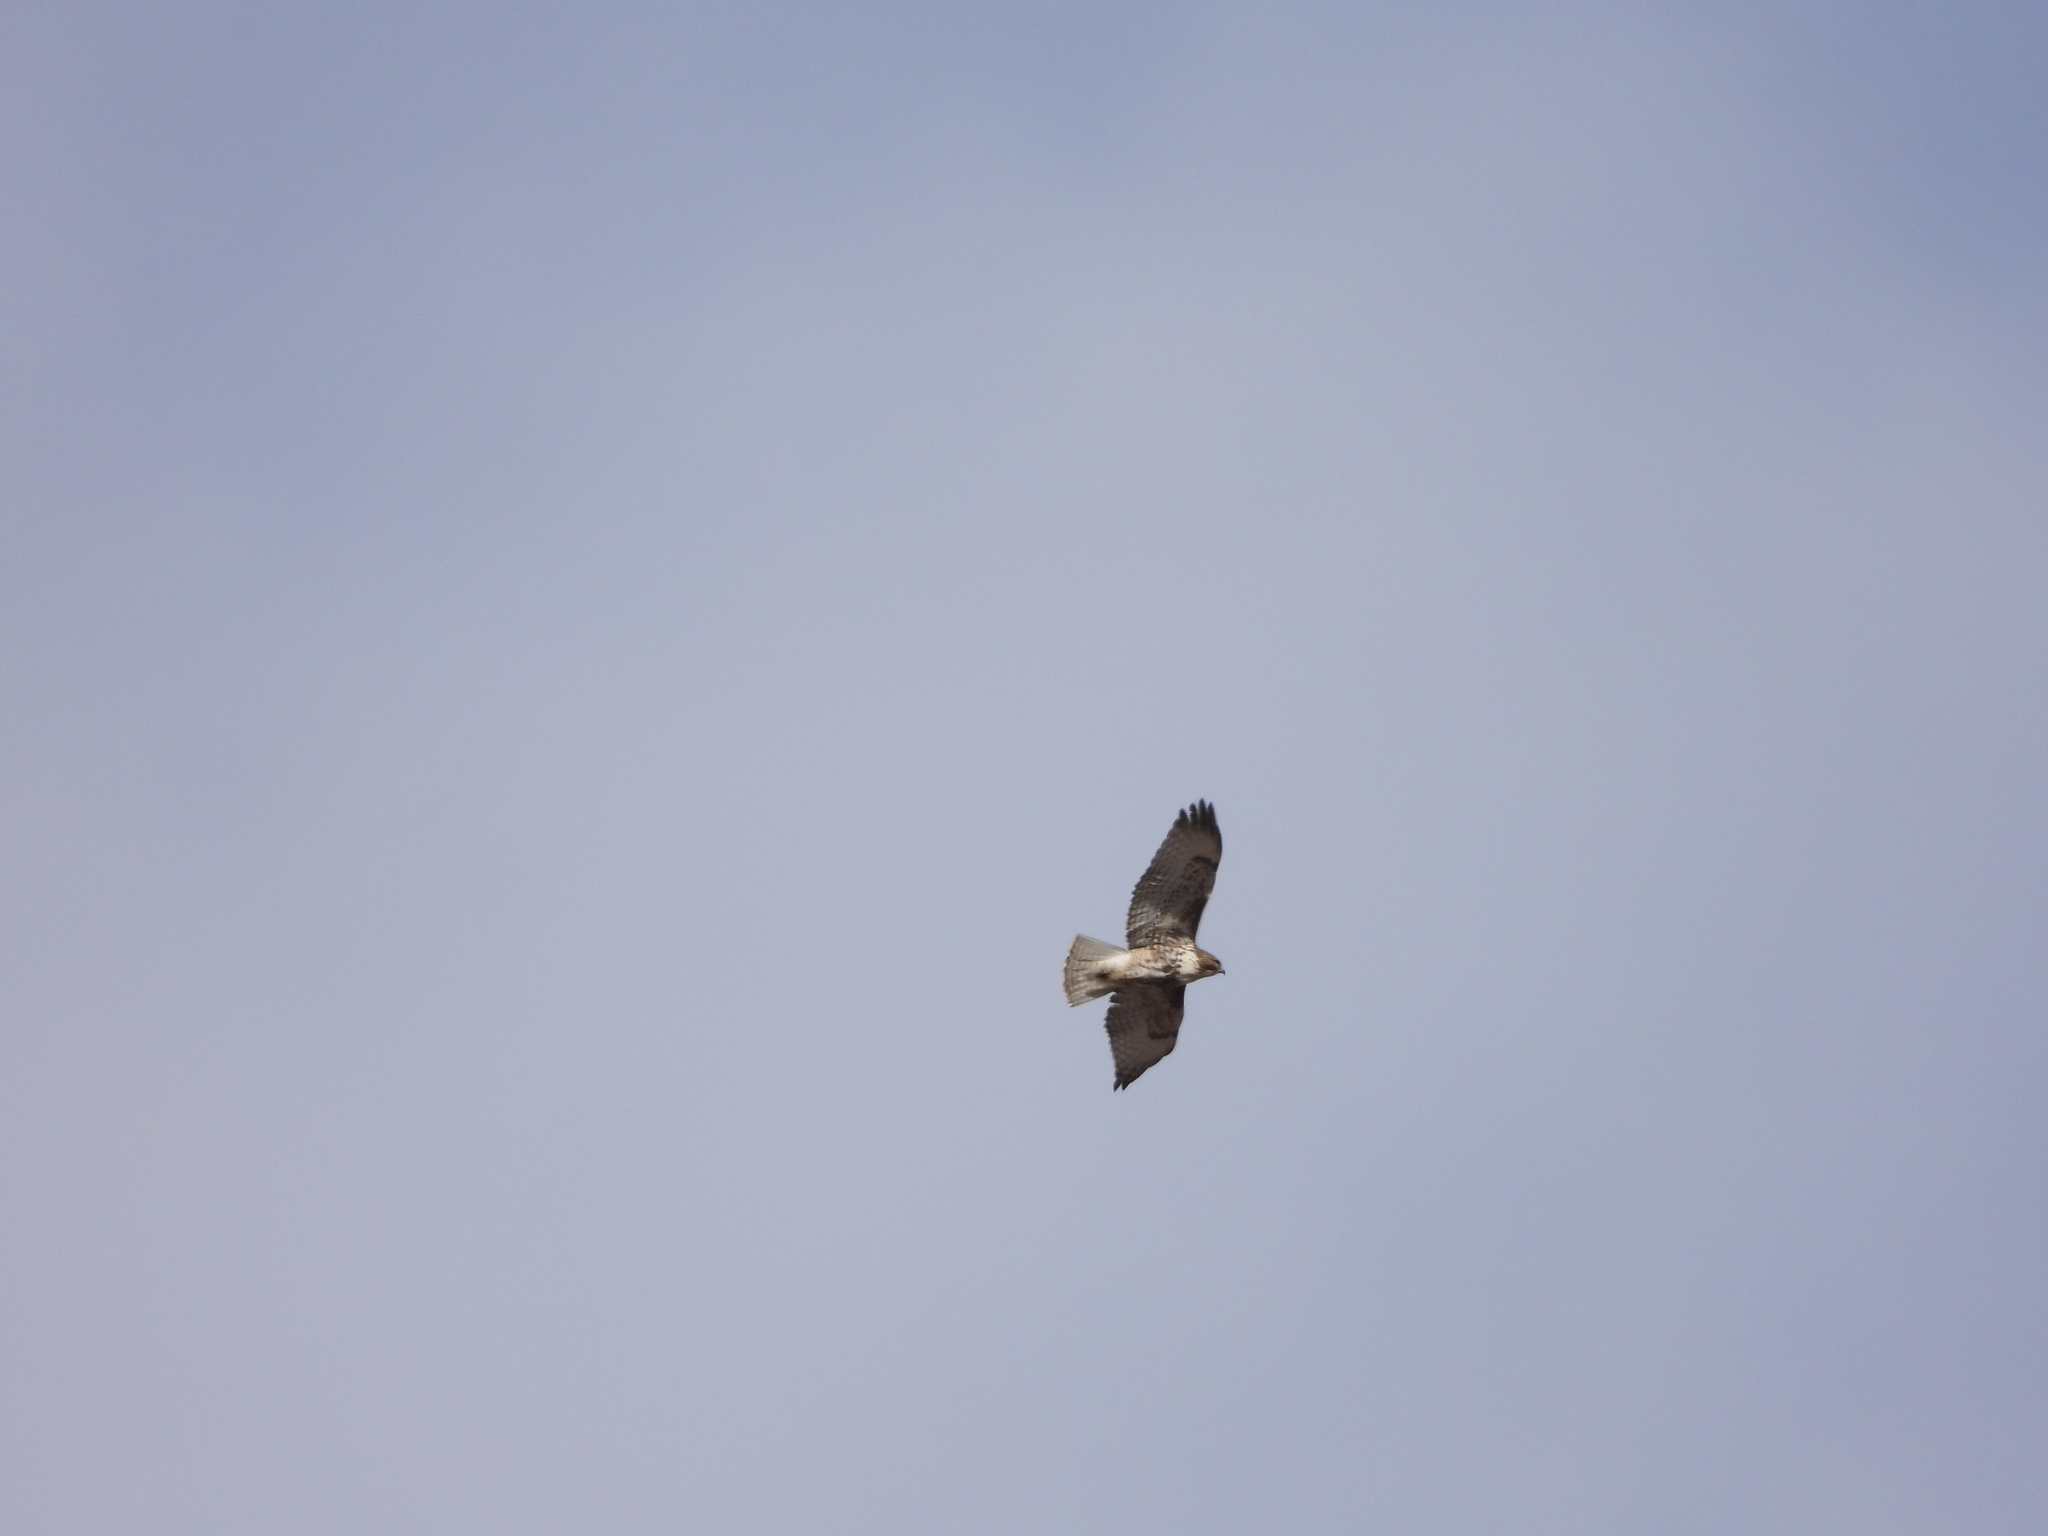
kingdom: Animalia
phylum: Chordata
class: Aves
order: Accipitriformes
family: Accipitridae
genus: Buteo
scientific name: Buteo jamaicensis
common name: Red-tailed hawk
